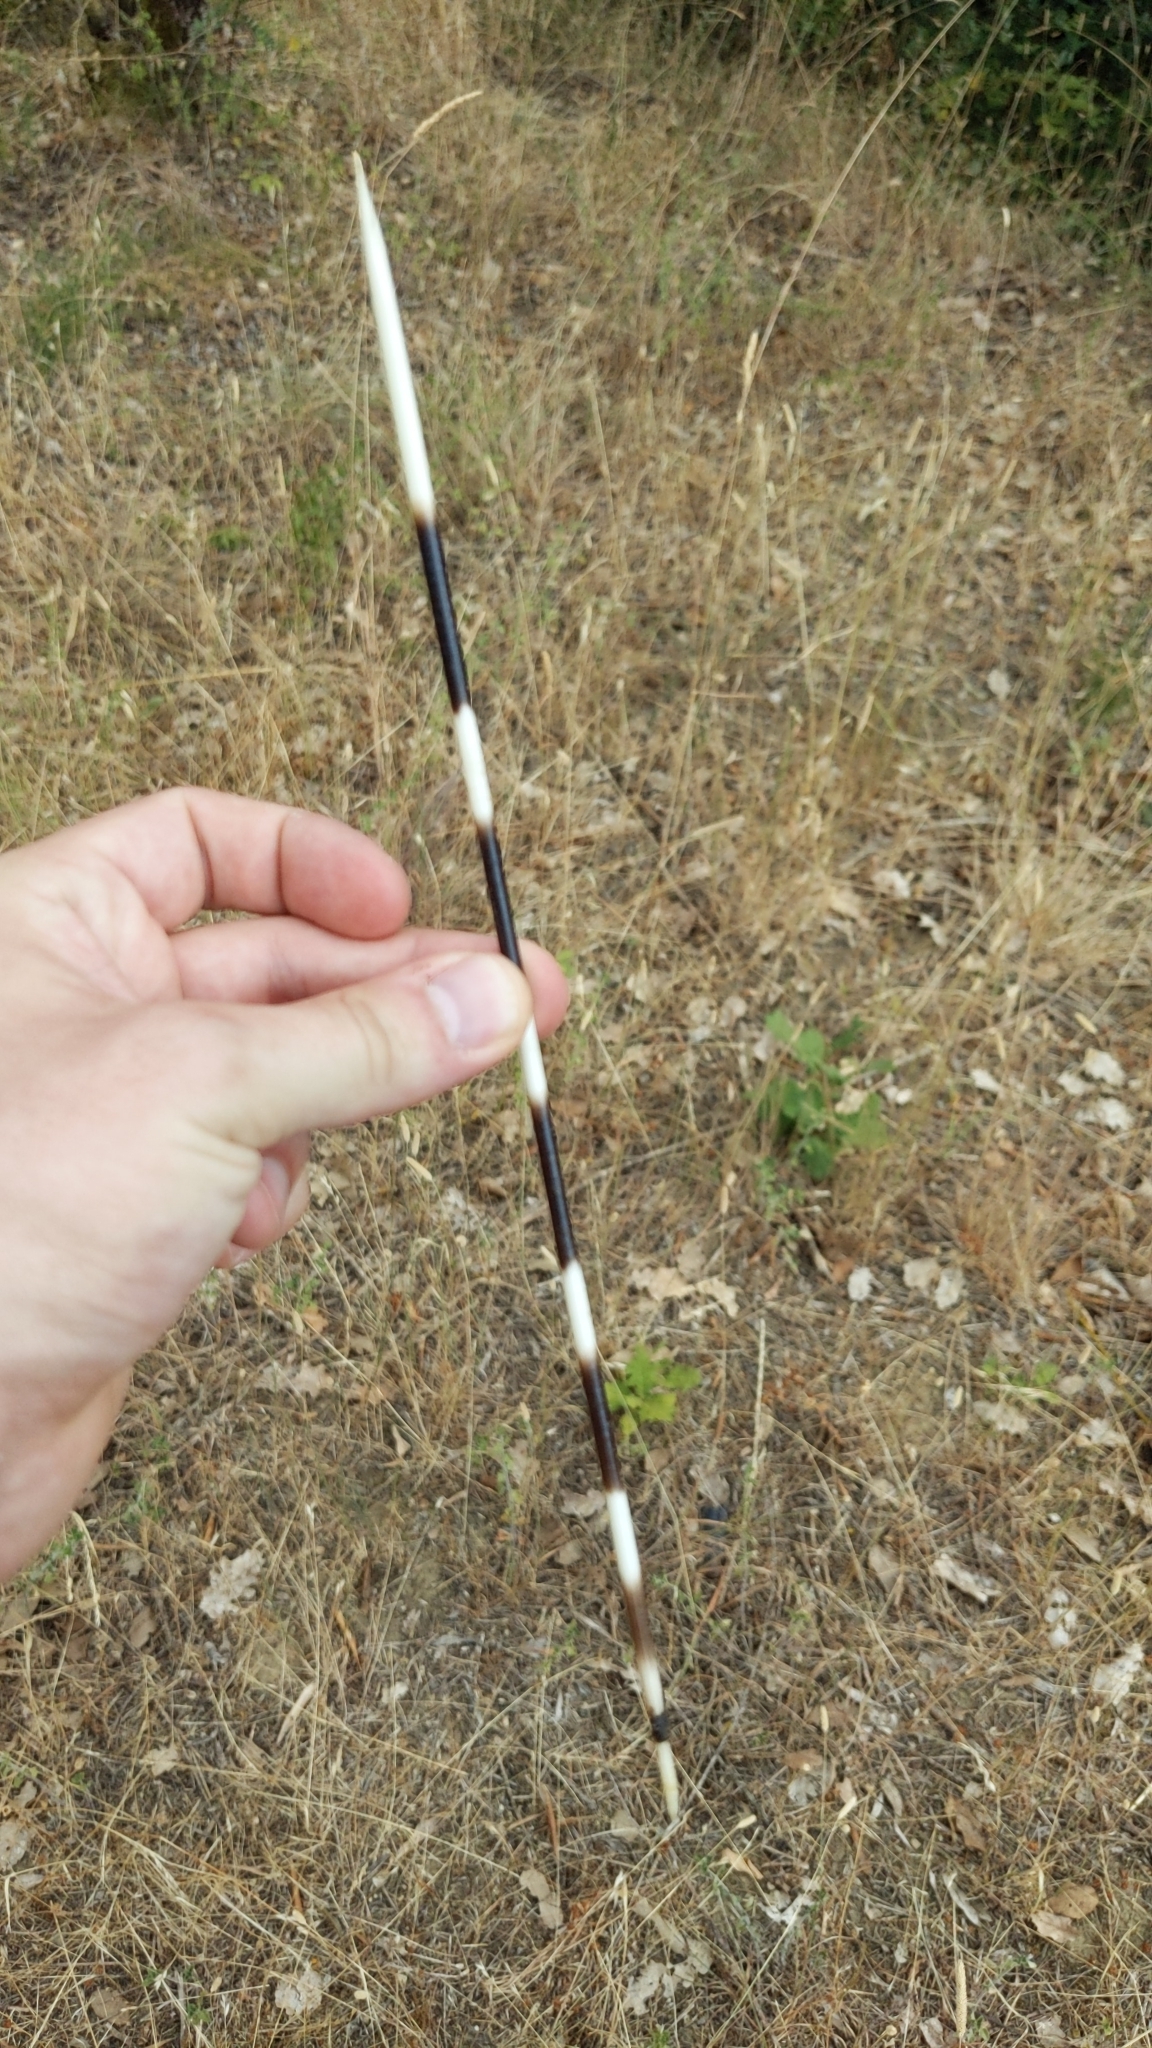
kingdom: Animalia
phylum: Chordata
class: Mammalia
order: Rodentia
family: Hystricidae
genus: Hystrix
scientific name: Hystrix cristata
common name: Crested porcupine
